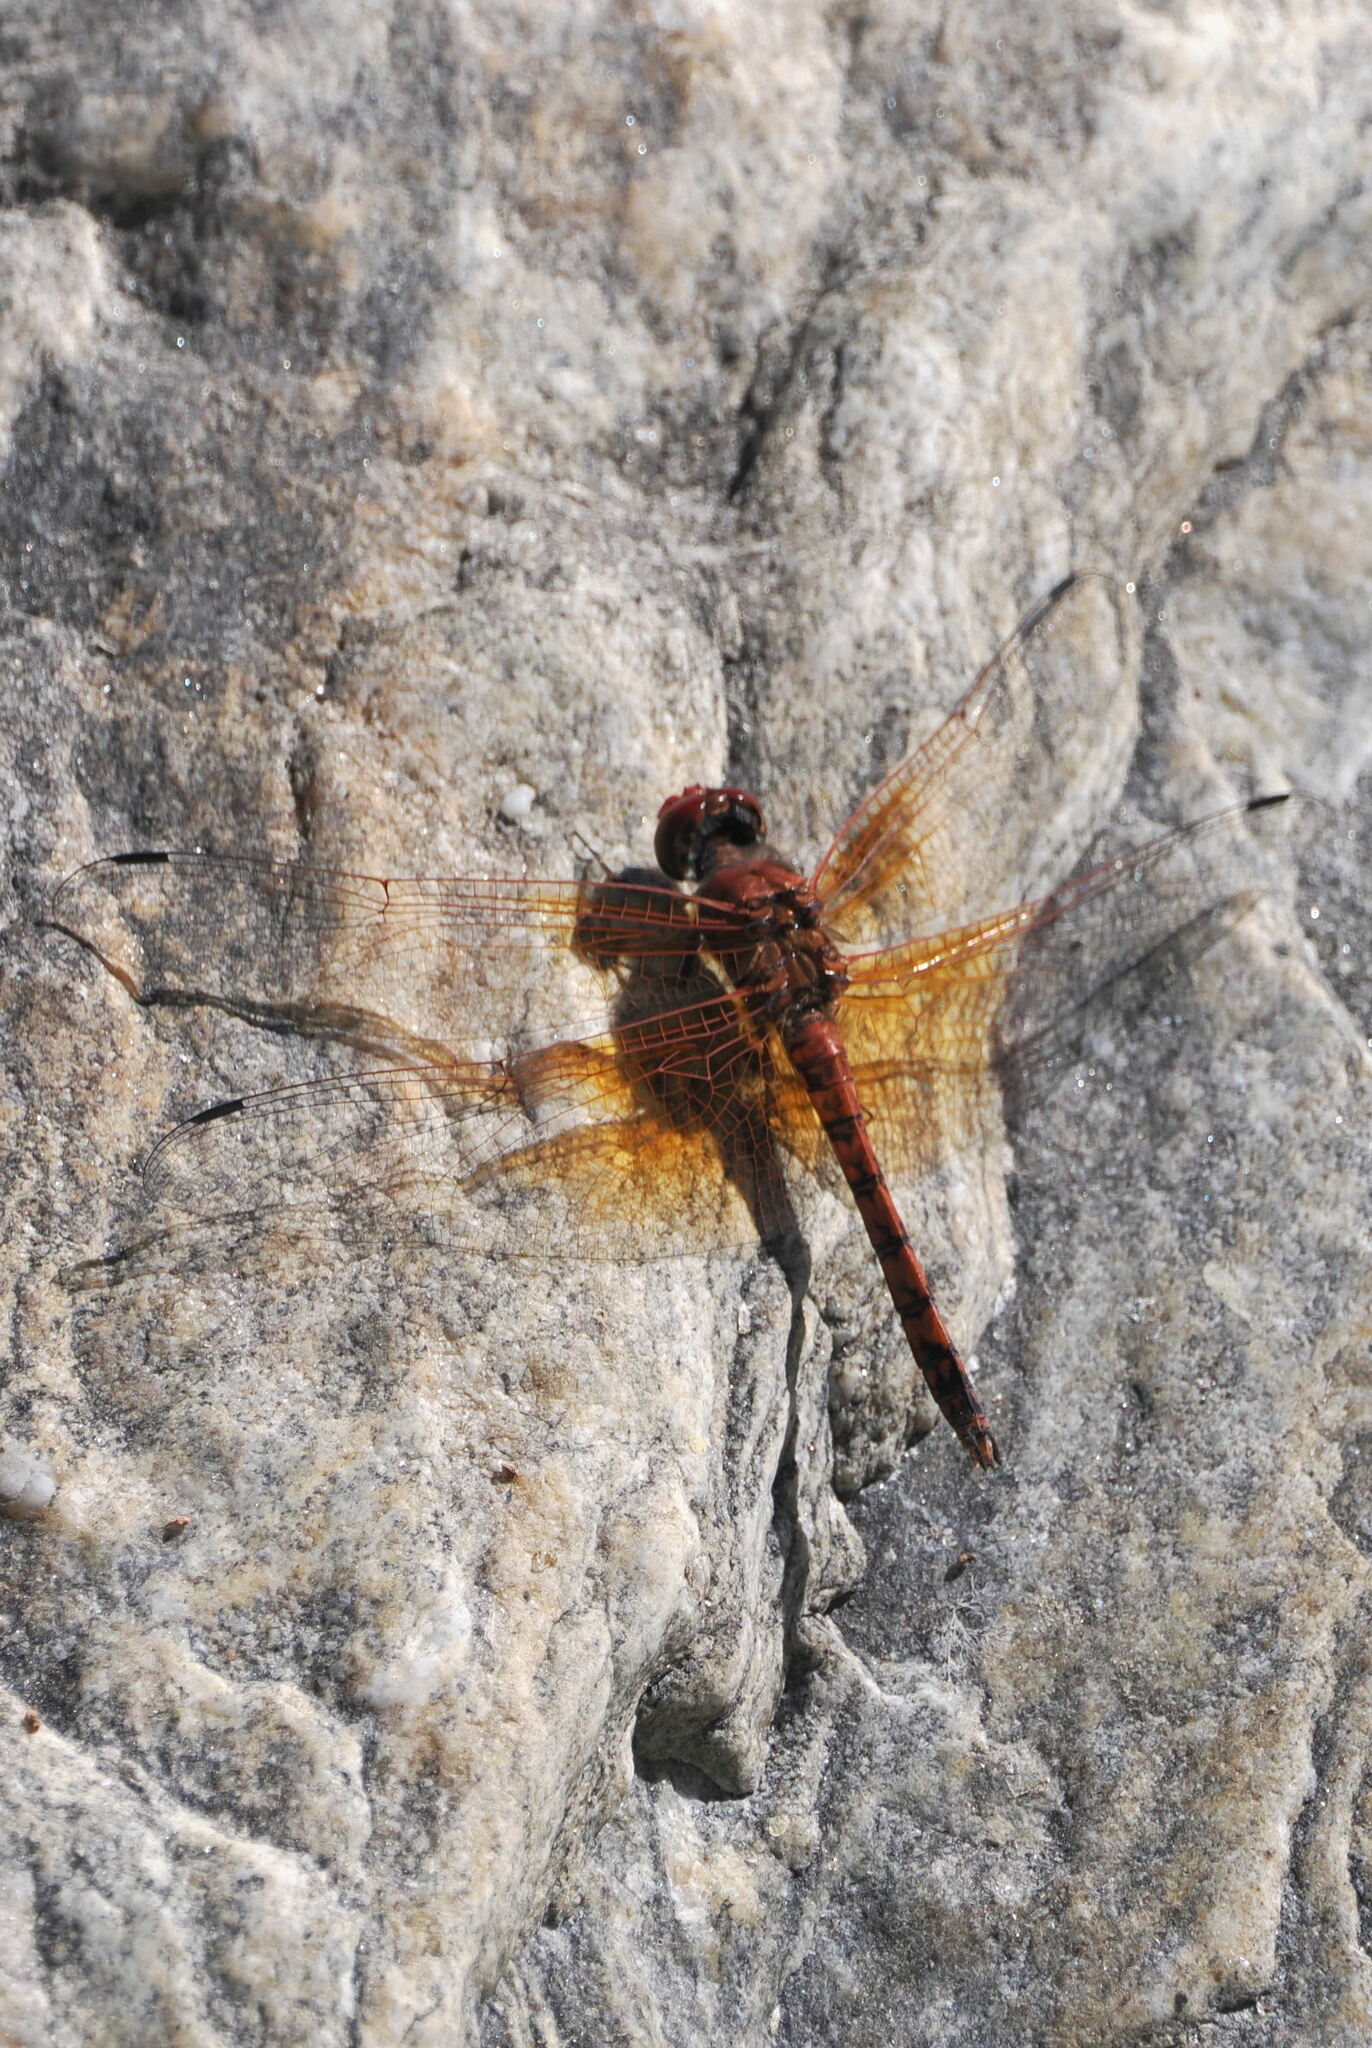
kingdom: Animalia
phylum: Arthropoda
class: Insecta
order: Odonata
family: Libellulidae
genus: Paltothemis
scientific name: Paltothemis lineatipes
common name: Red rock skimmer
